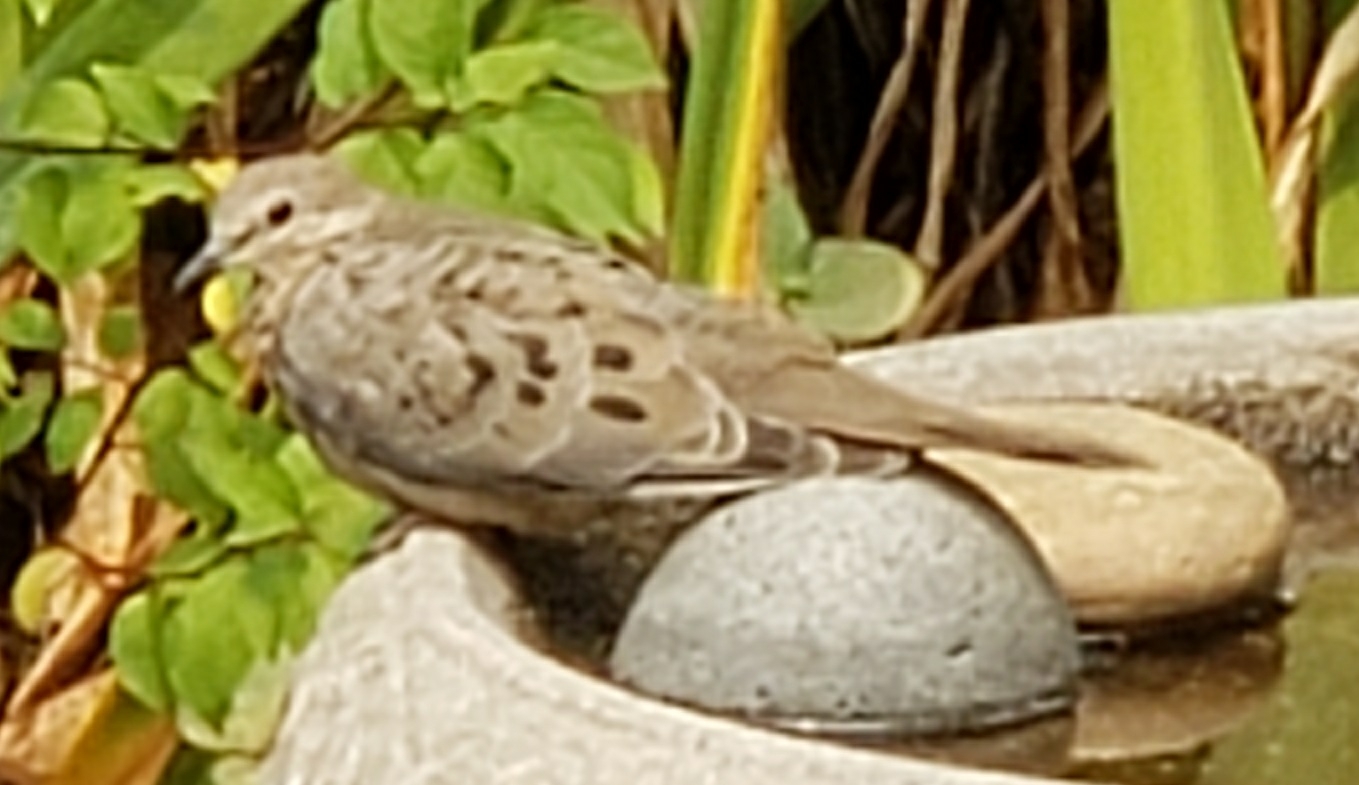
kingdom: Animalia
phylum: Chordata
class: Aves
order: Columbiformes
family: Columbidae
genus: Zenaida
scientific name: Zenaida macroura
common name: Mourning dove
